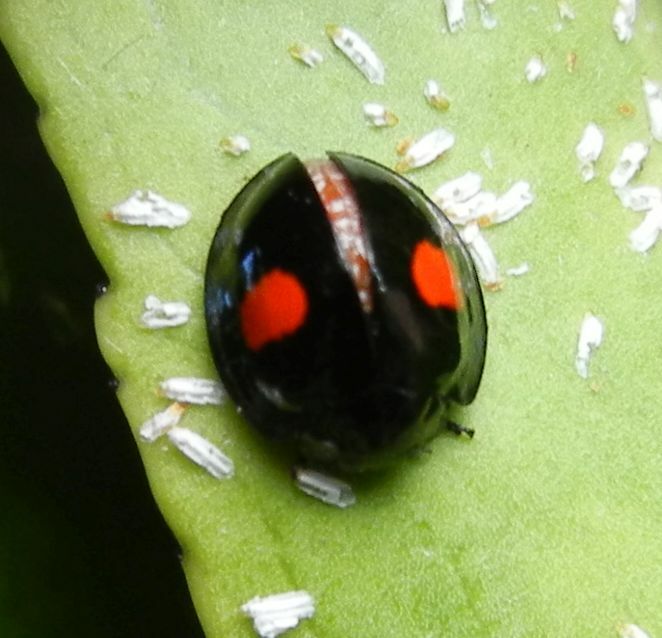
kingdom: Animalia
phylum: Arthropoda
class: Insecta
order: Coleoptera
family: Coccinellidae
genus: Chilocorus
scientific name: Chilocorus renipustulatus
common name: Kidney-spot ladybird
